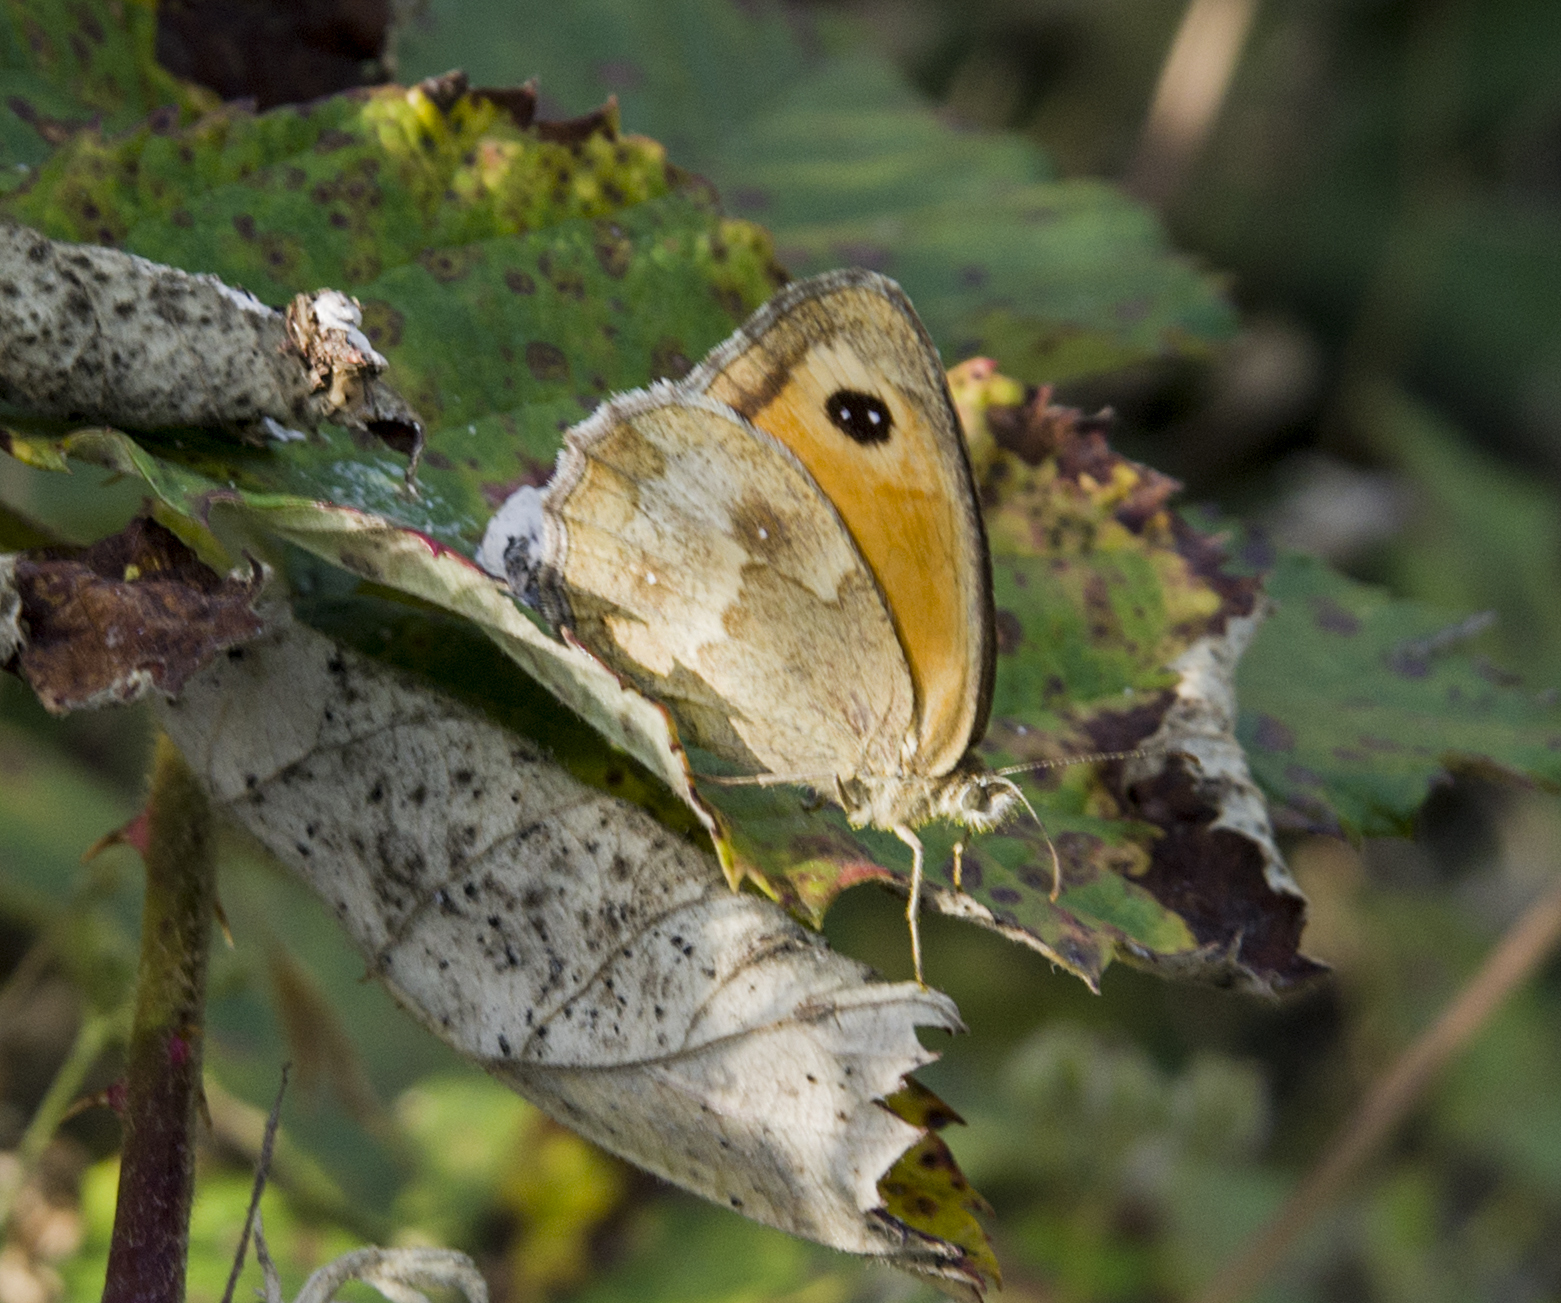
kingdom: Animalia
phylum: Arthropoda
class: Insecta
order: Lepidoptera
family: Nymphalidae
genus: Pyronia
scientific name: Pyronia tithonus
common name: Gatekeeper
